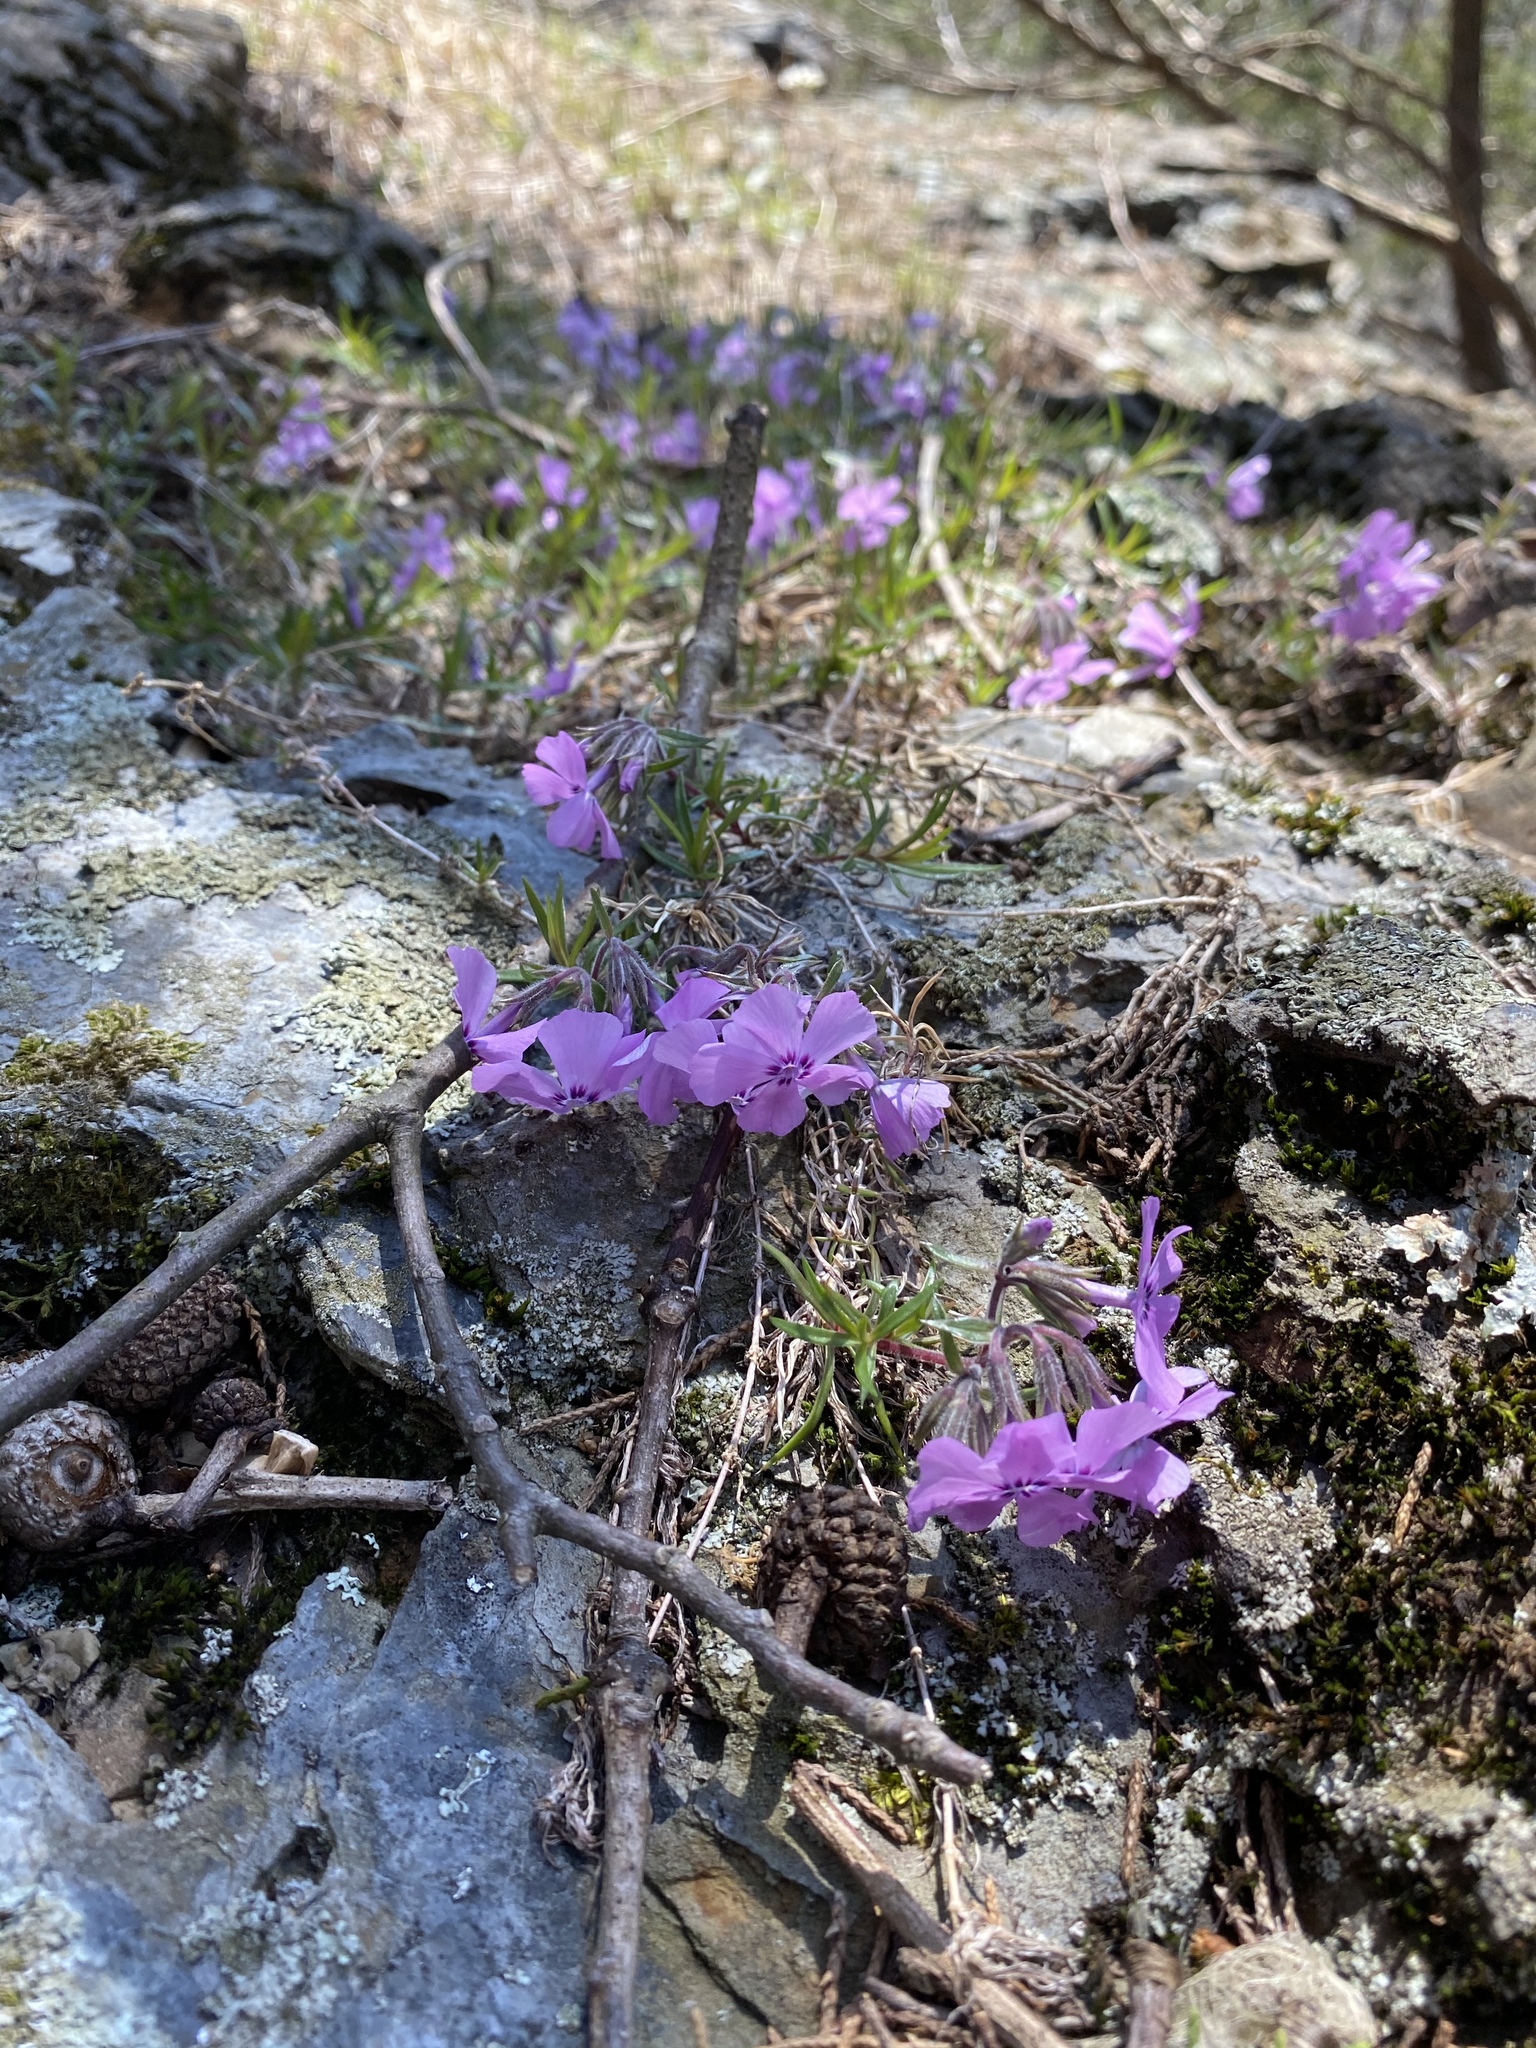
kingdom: Plantae
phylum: Tracheophyta
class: Magnoliopsida
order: Ericales
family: Polemoniaceae
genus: Phlox
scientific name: Phlox subulata
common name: Moss phlox
